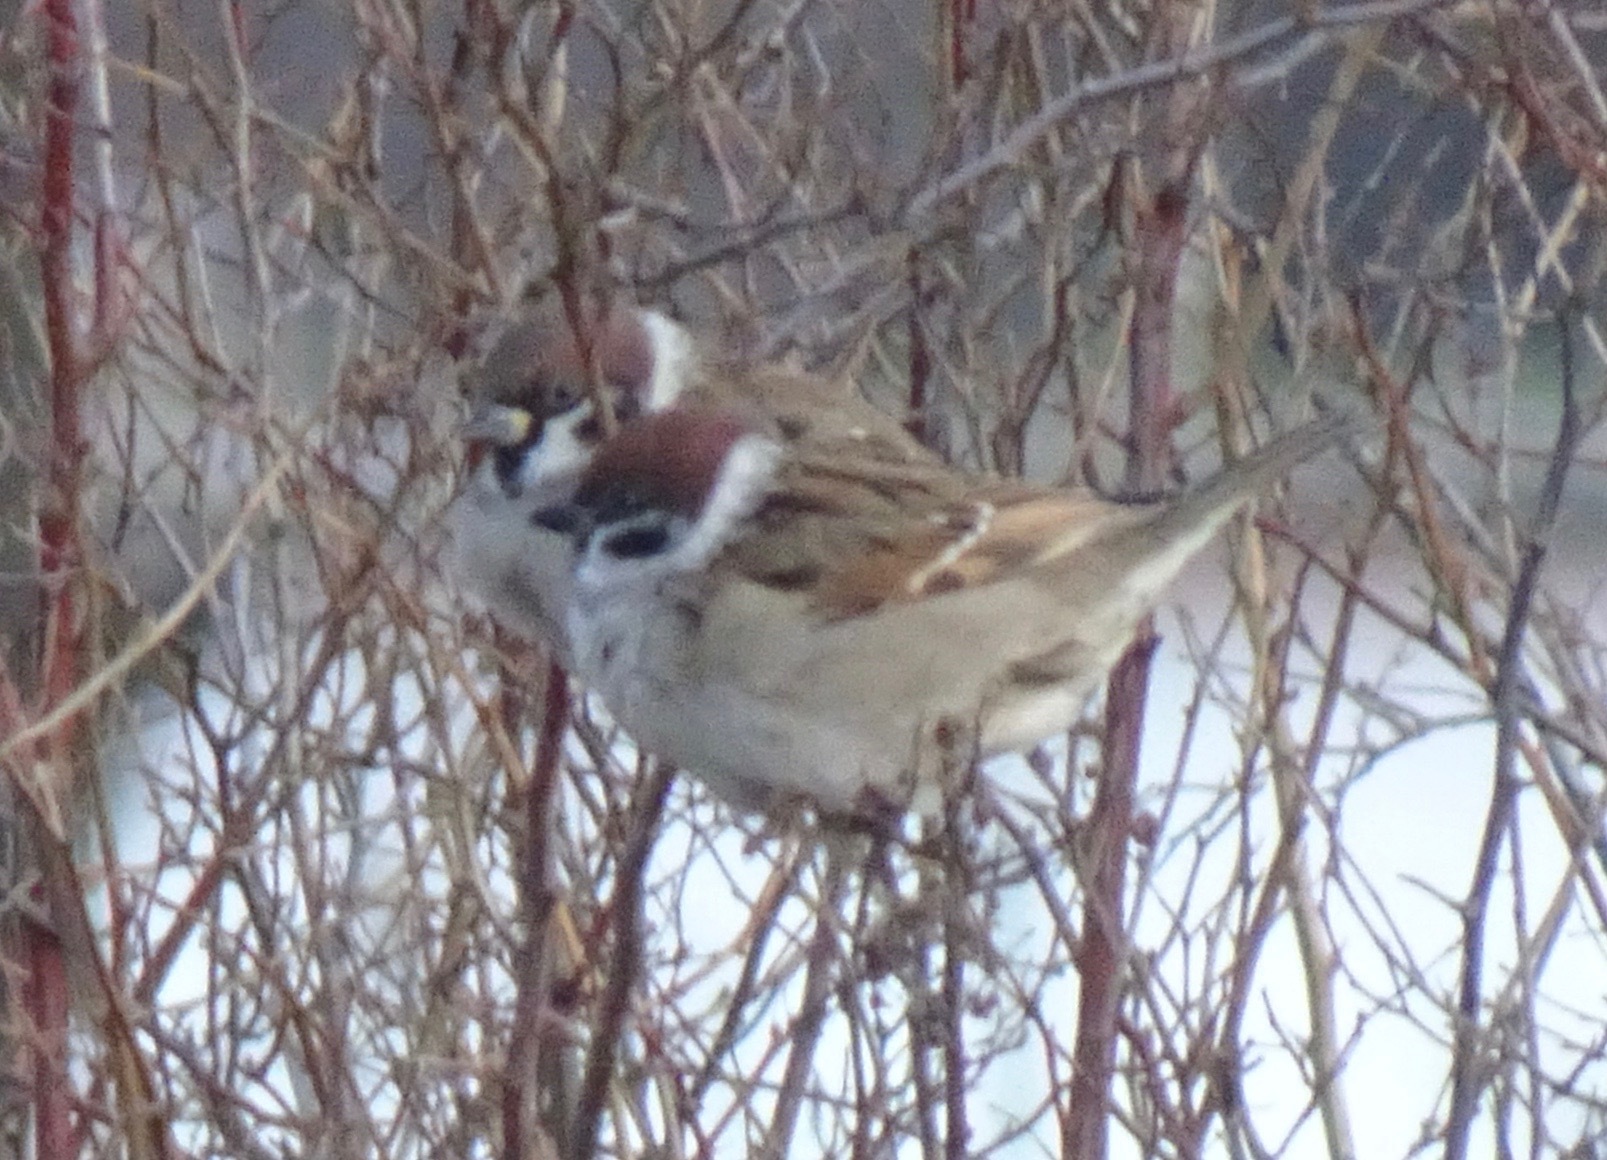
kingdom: Animalia
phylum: Chordata
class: Aves
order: Passeriformes
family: Passeridae
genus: Passer
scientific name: Passer montanus
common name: Eurasian tree sparrow
